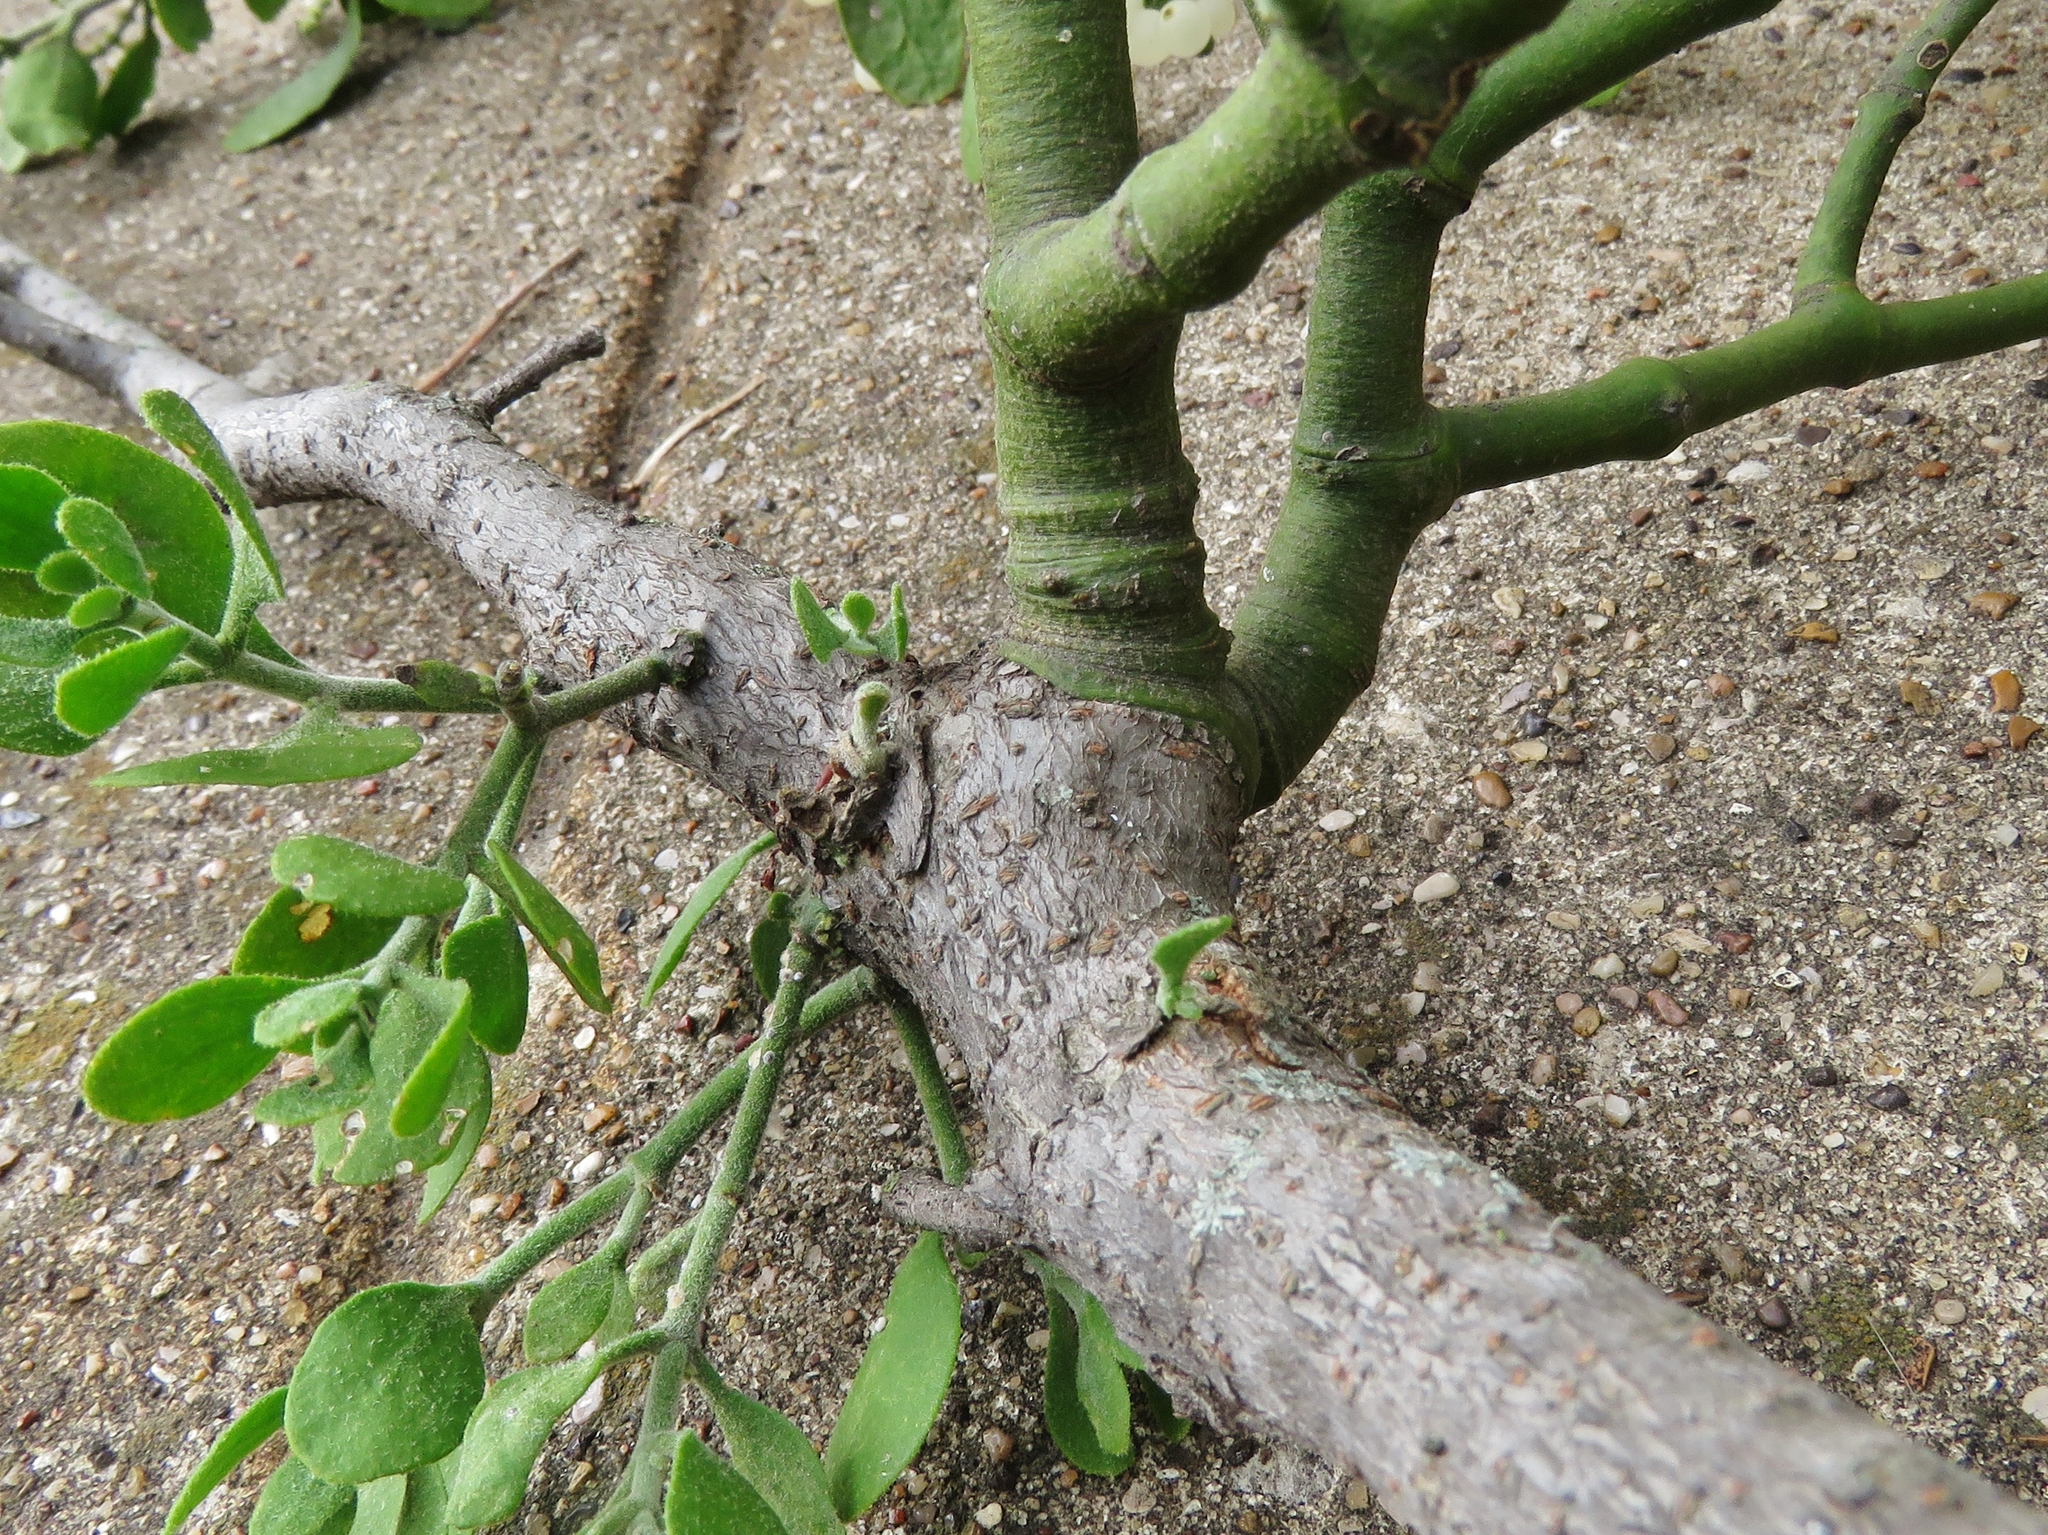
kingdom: Plantae
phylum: Tracheophyta
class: Magnoliopsida
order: Santalales
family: Viscaceae
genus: Phoradendron
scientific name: Phoradendron leucarpum
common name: Pacific mistletoe
